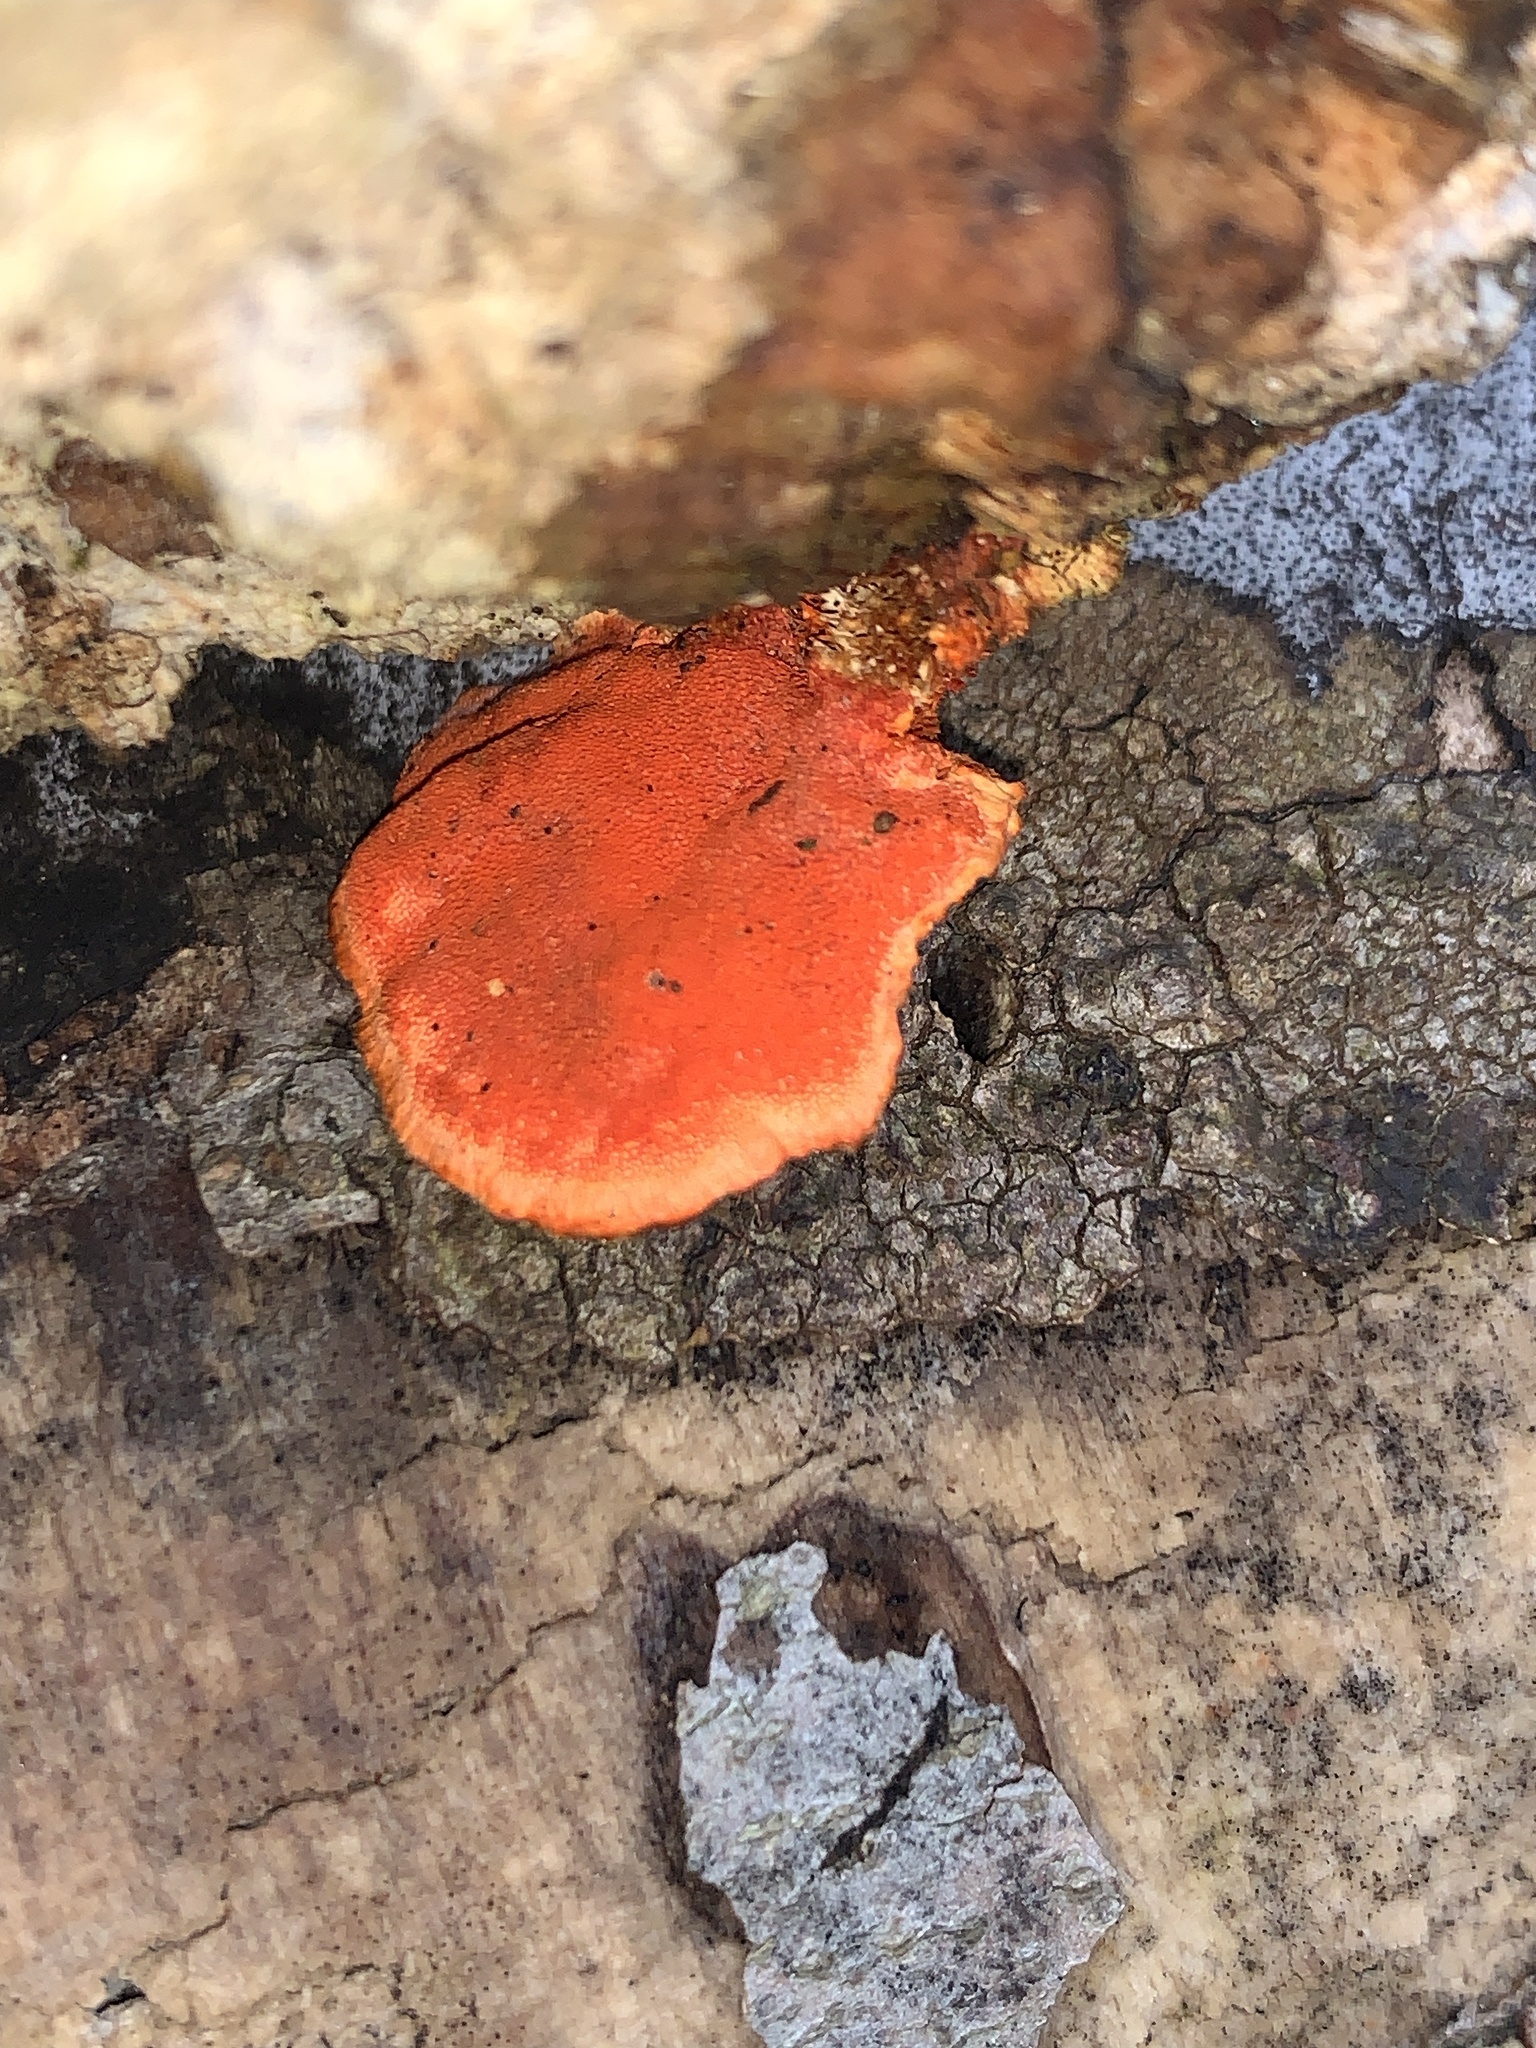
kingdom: Fungi
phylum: Basidiomycota
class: Agaricomycetes
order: Polyporales
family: Polyporaceae
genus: Trametes
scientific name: Trametes cinnabarina
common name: Northern cinnabar polypore
